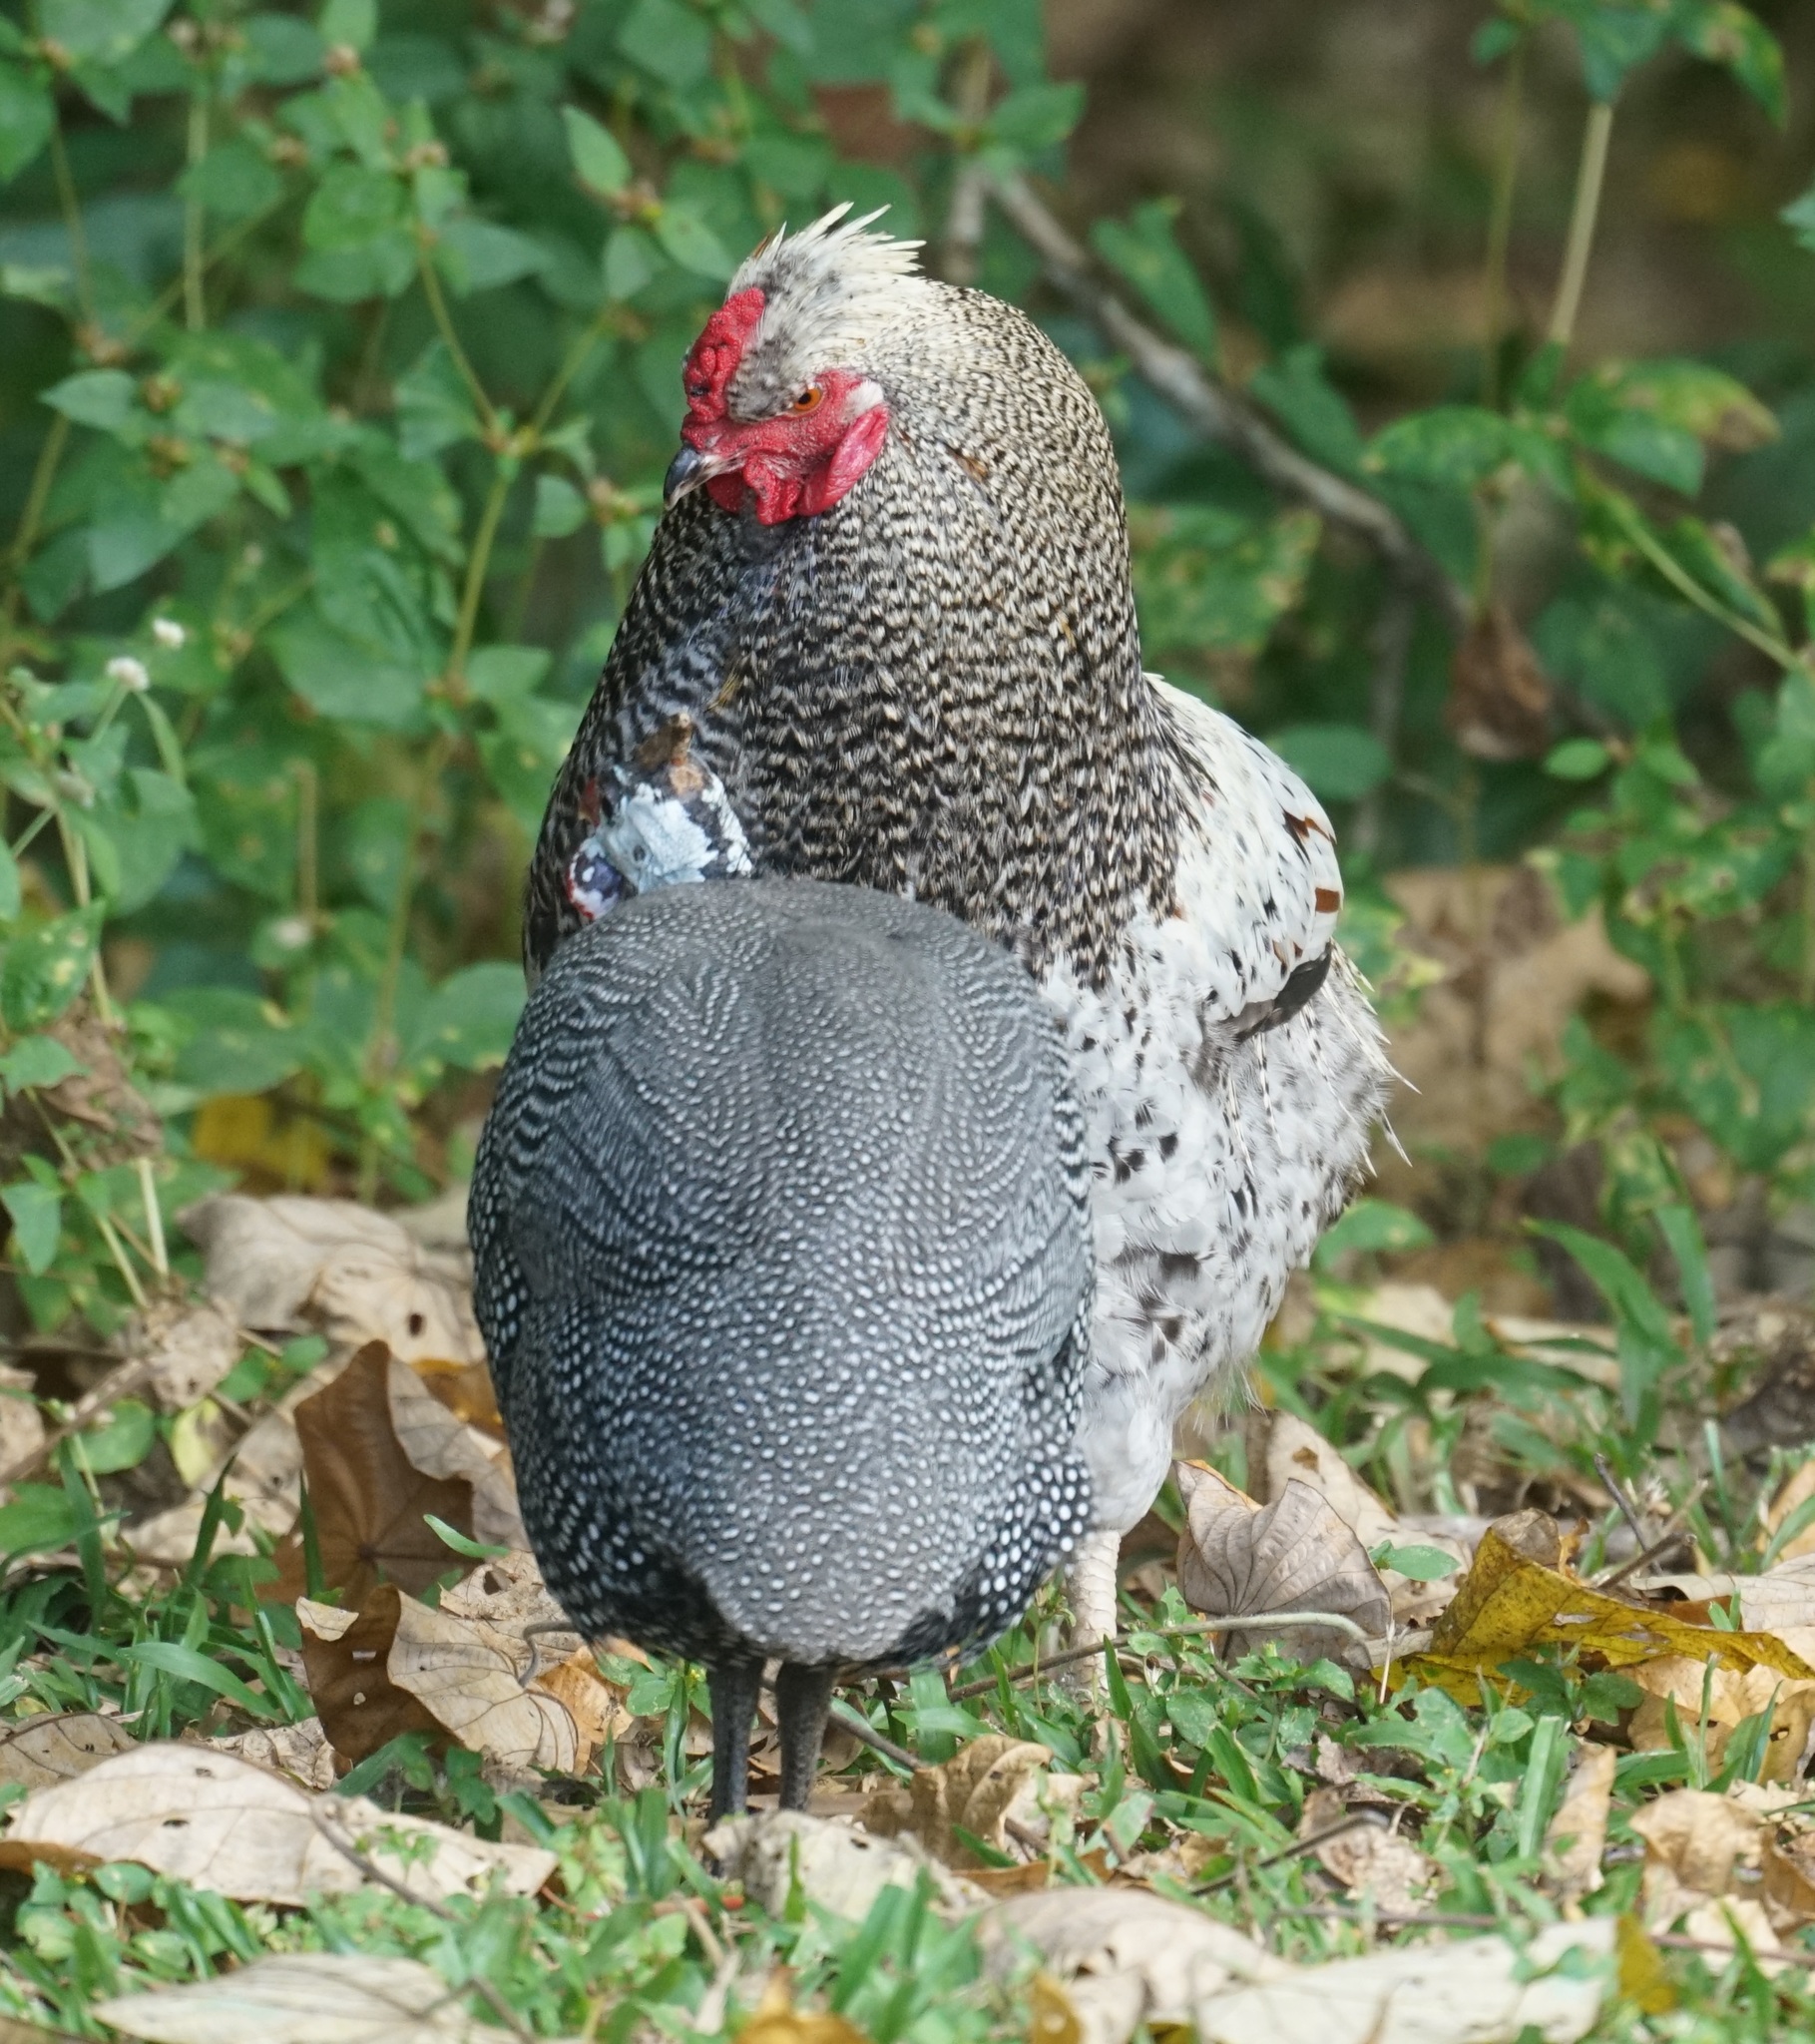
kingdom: Animalia
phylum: Chordata
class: Aves
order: Galliformes
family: Phasianidae
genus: Gallus
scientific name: Gallus gallus
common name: Red junglefowl
